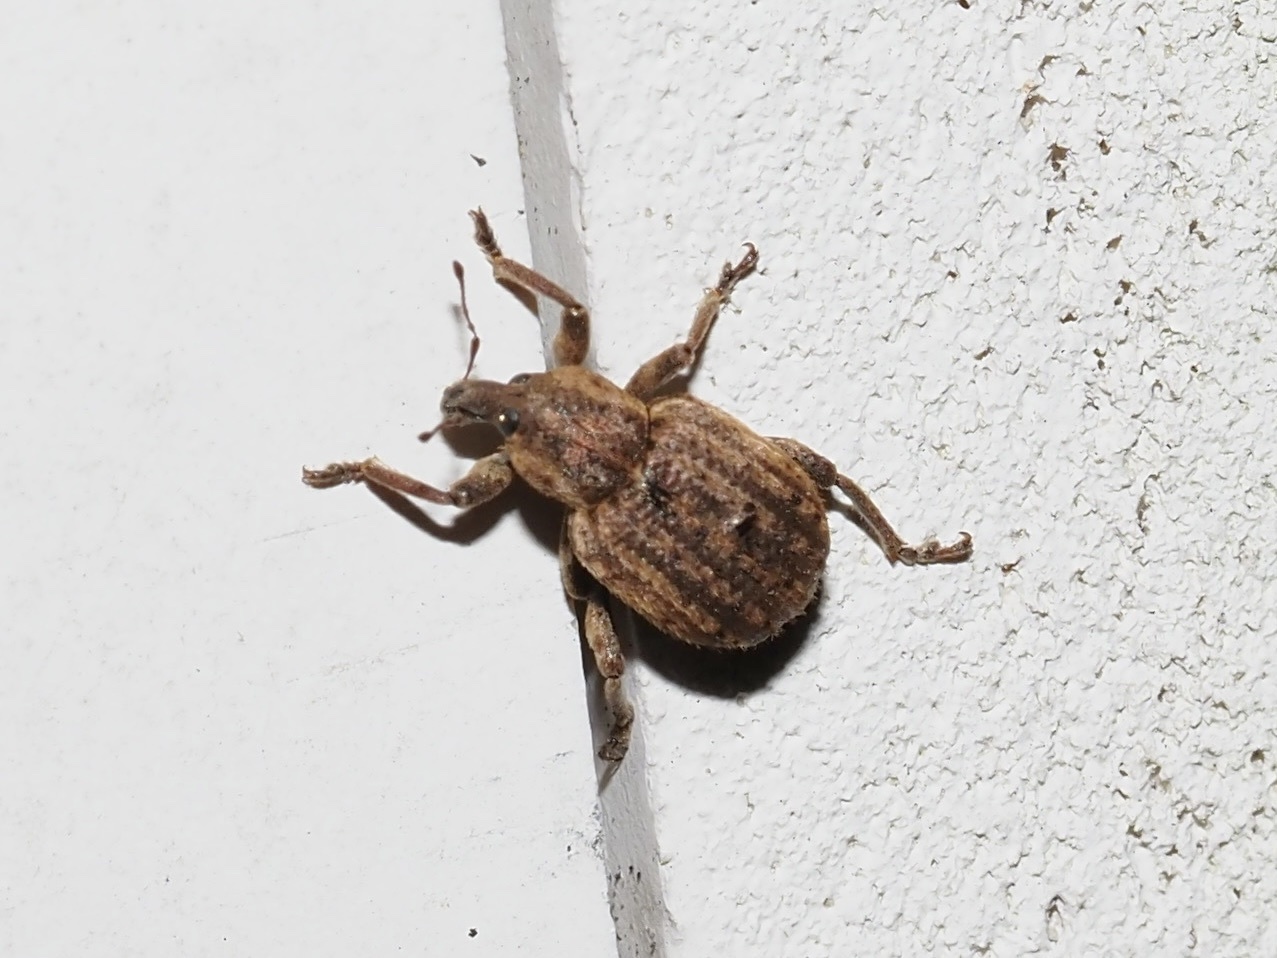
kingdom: Animalia
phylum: Arthropoda
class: Insecta
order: Coleoptera
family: Curculionidae
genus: Brachypera
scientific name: Brachypera zoilus
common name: Clover leaf weevil
